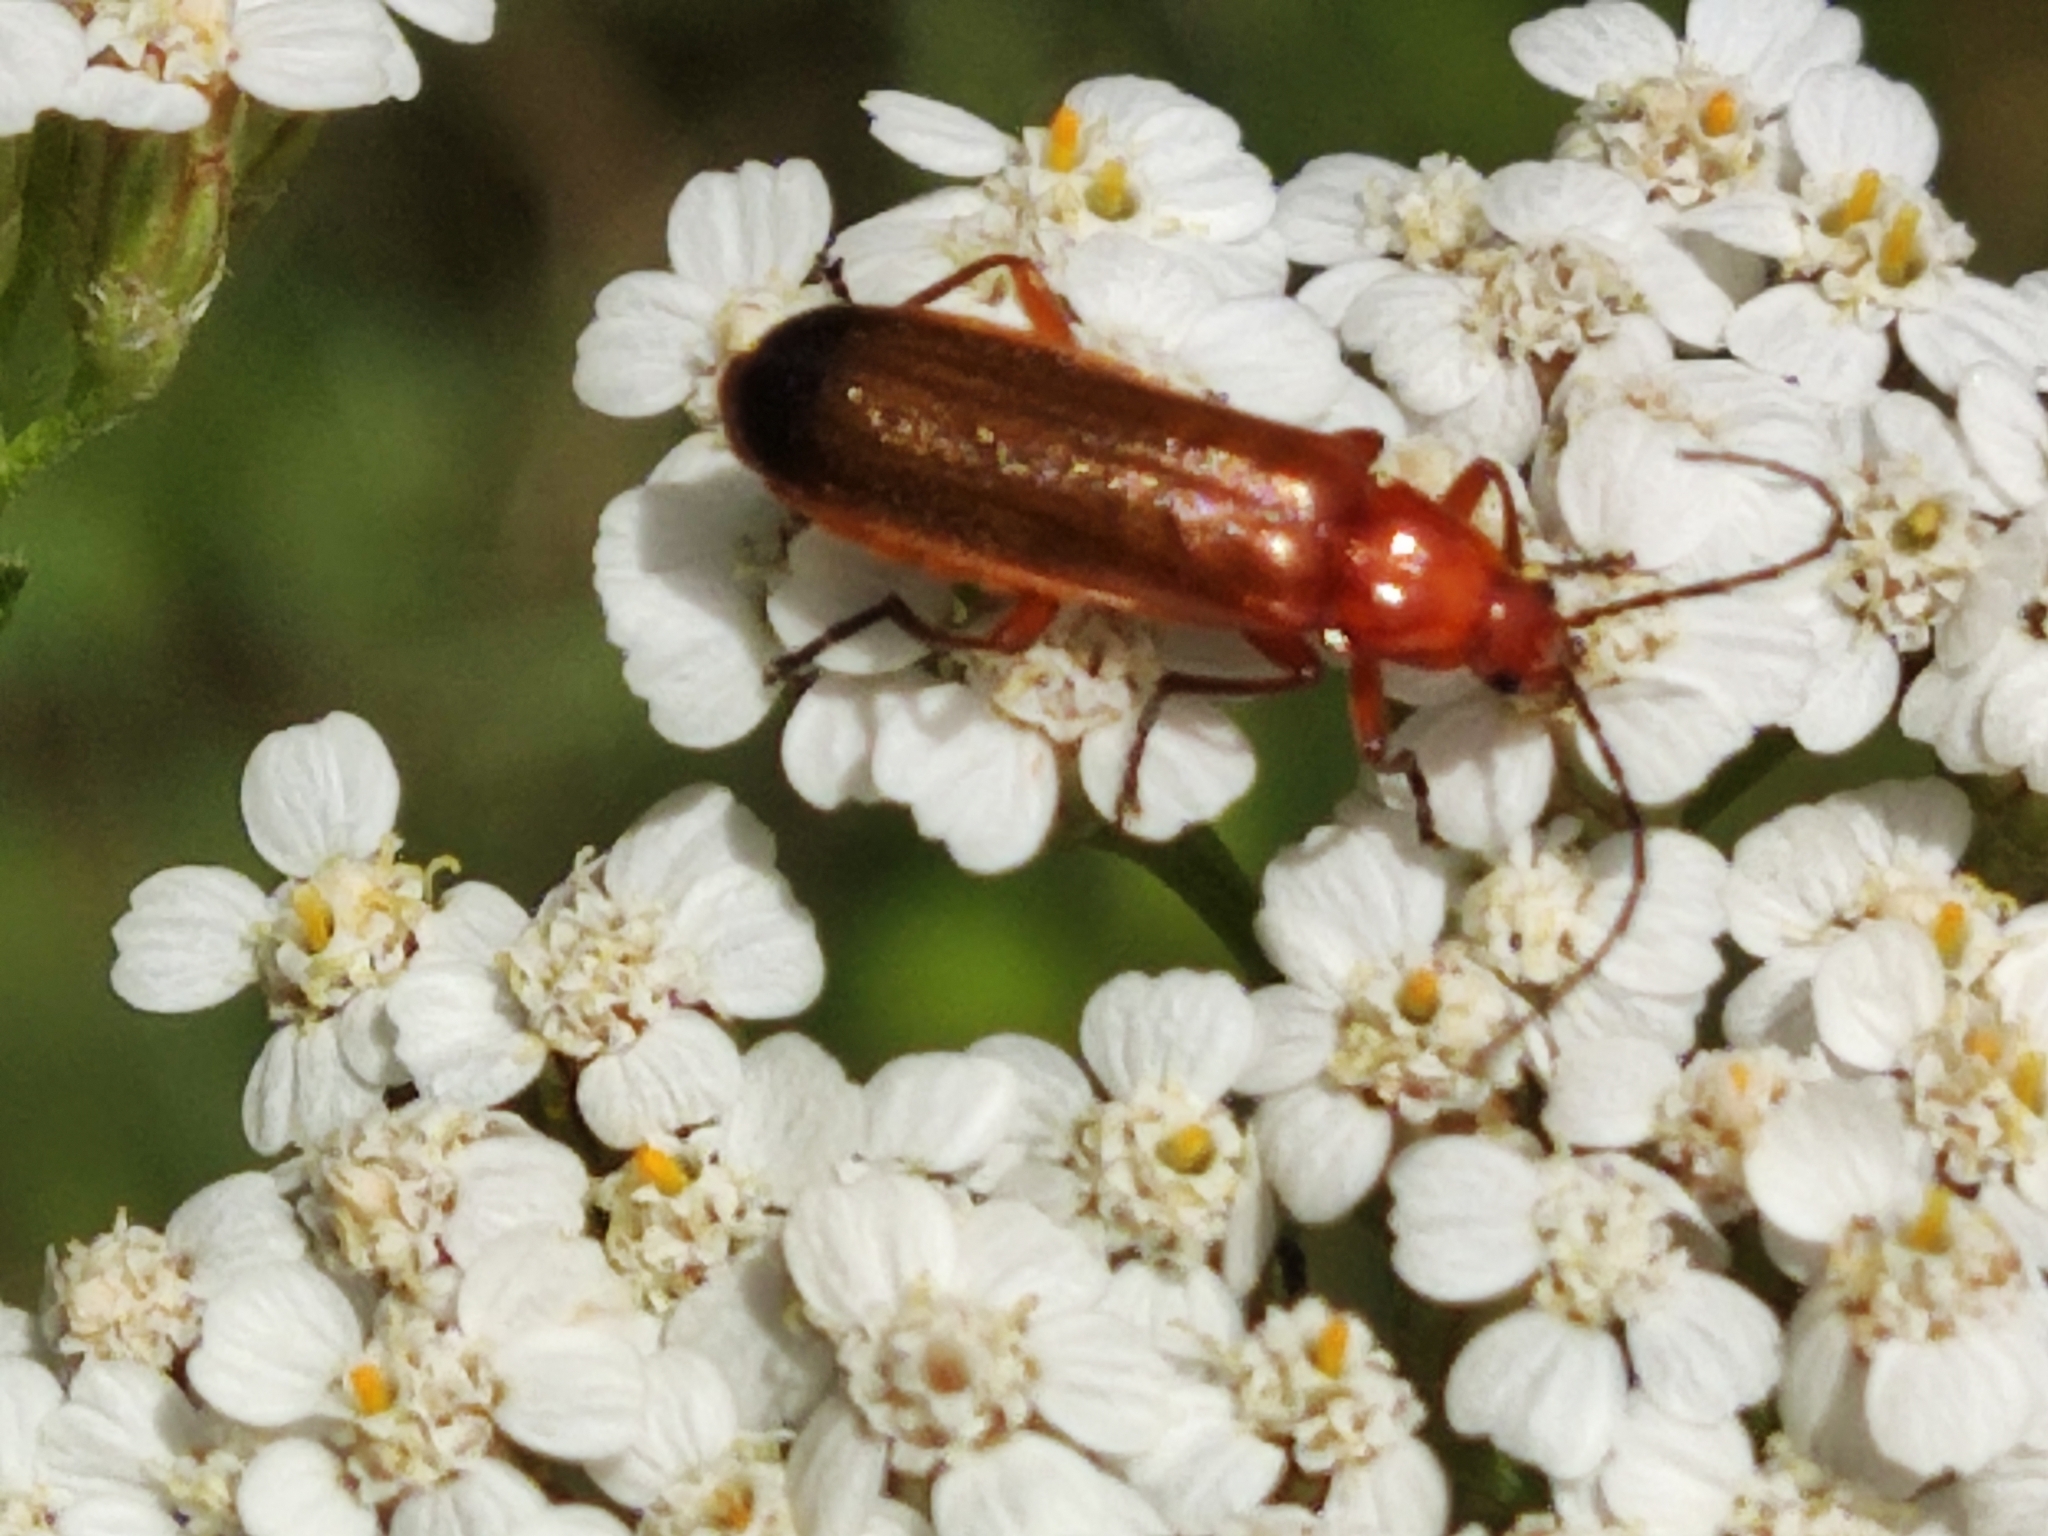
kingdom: Animalia
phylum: Arthropoda
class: Insecta
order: Coleoptera
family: Cantharidae
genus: Rhagonycha
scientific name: Rhagonycha fulva
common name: Common red soldier beetle
